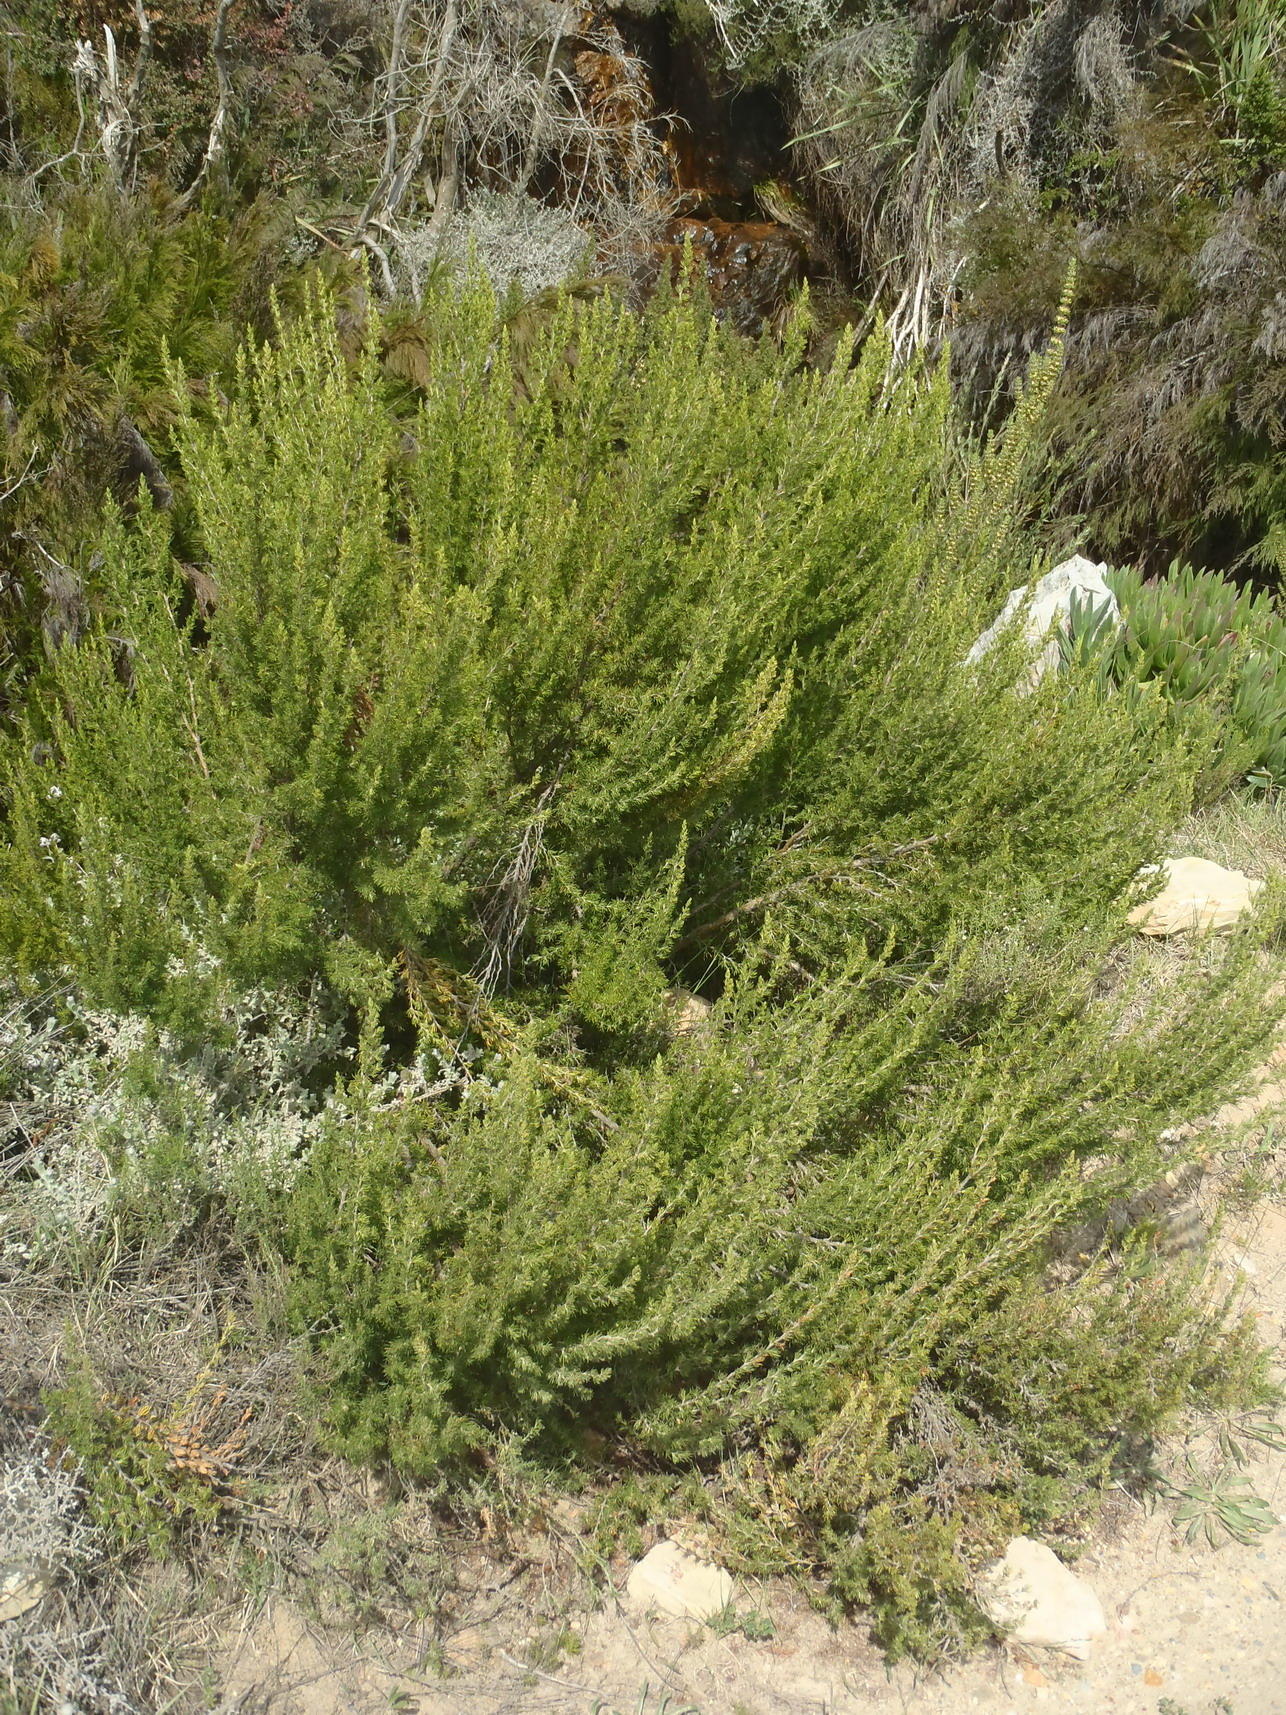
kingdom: Plantae
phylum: Tracheophyta
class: Magnoliopsida
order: Rosales
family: Rosaceae
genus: Cliffortia
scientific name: Cliffortia tuberculata
